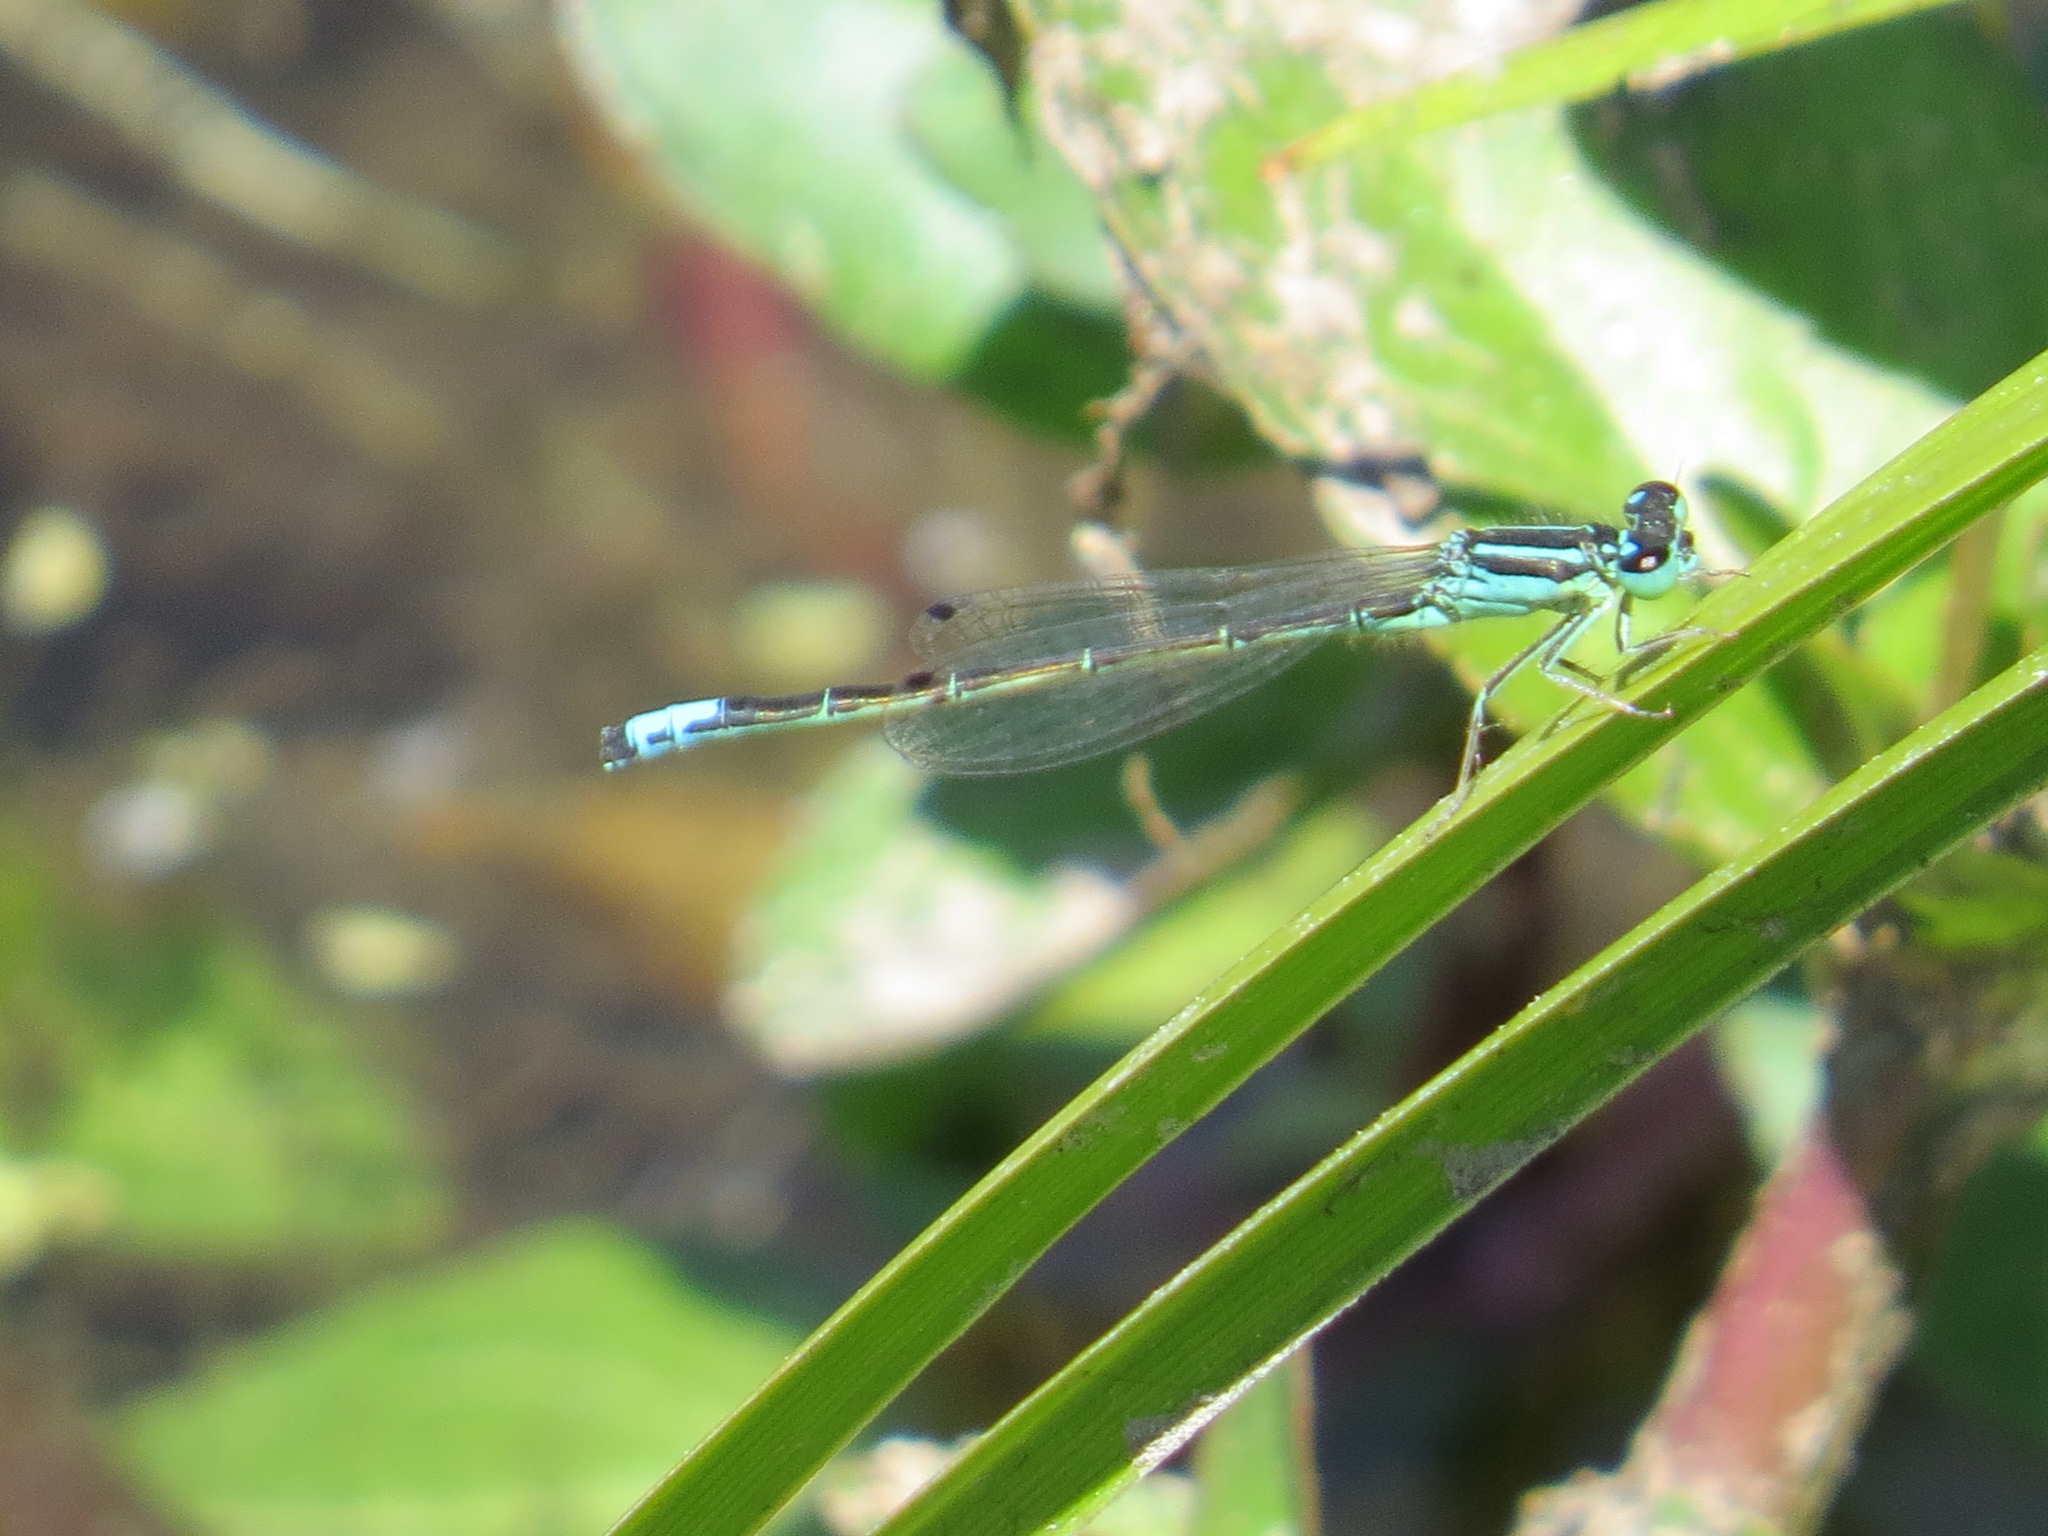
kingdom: Animalia
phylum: Arthropoda
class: Insecta
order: Odonata
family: Coenagrionidae
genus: Ischnura
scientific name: Ischnura perparva
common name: Western forktail
